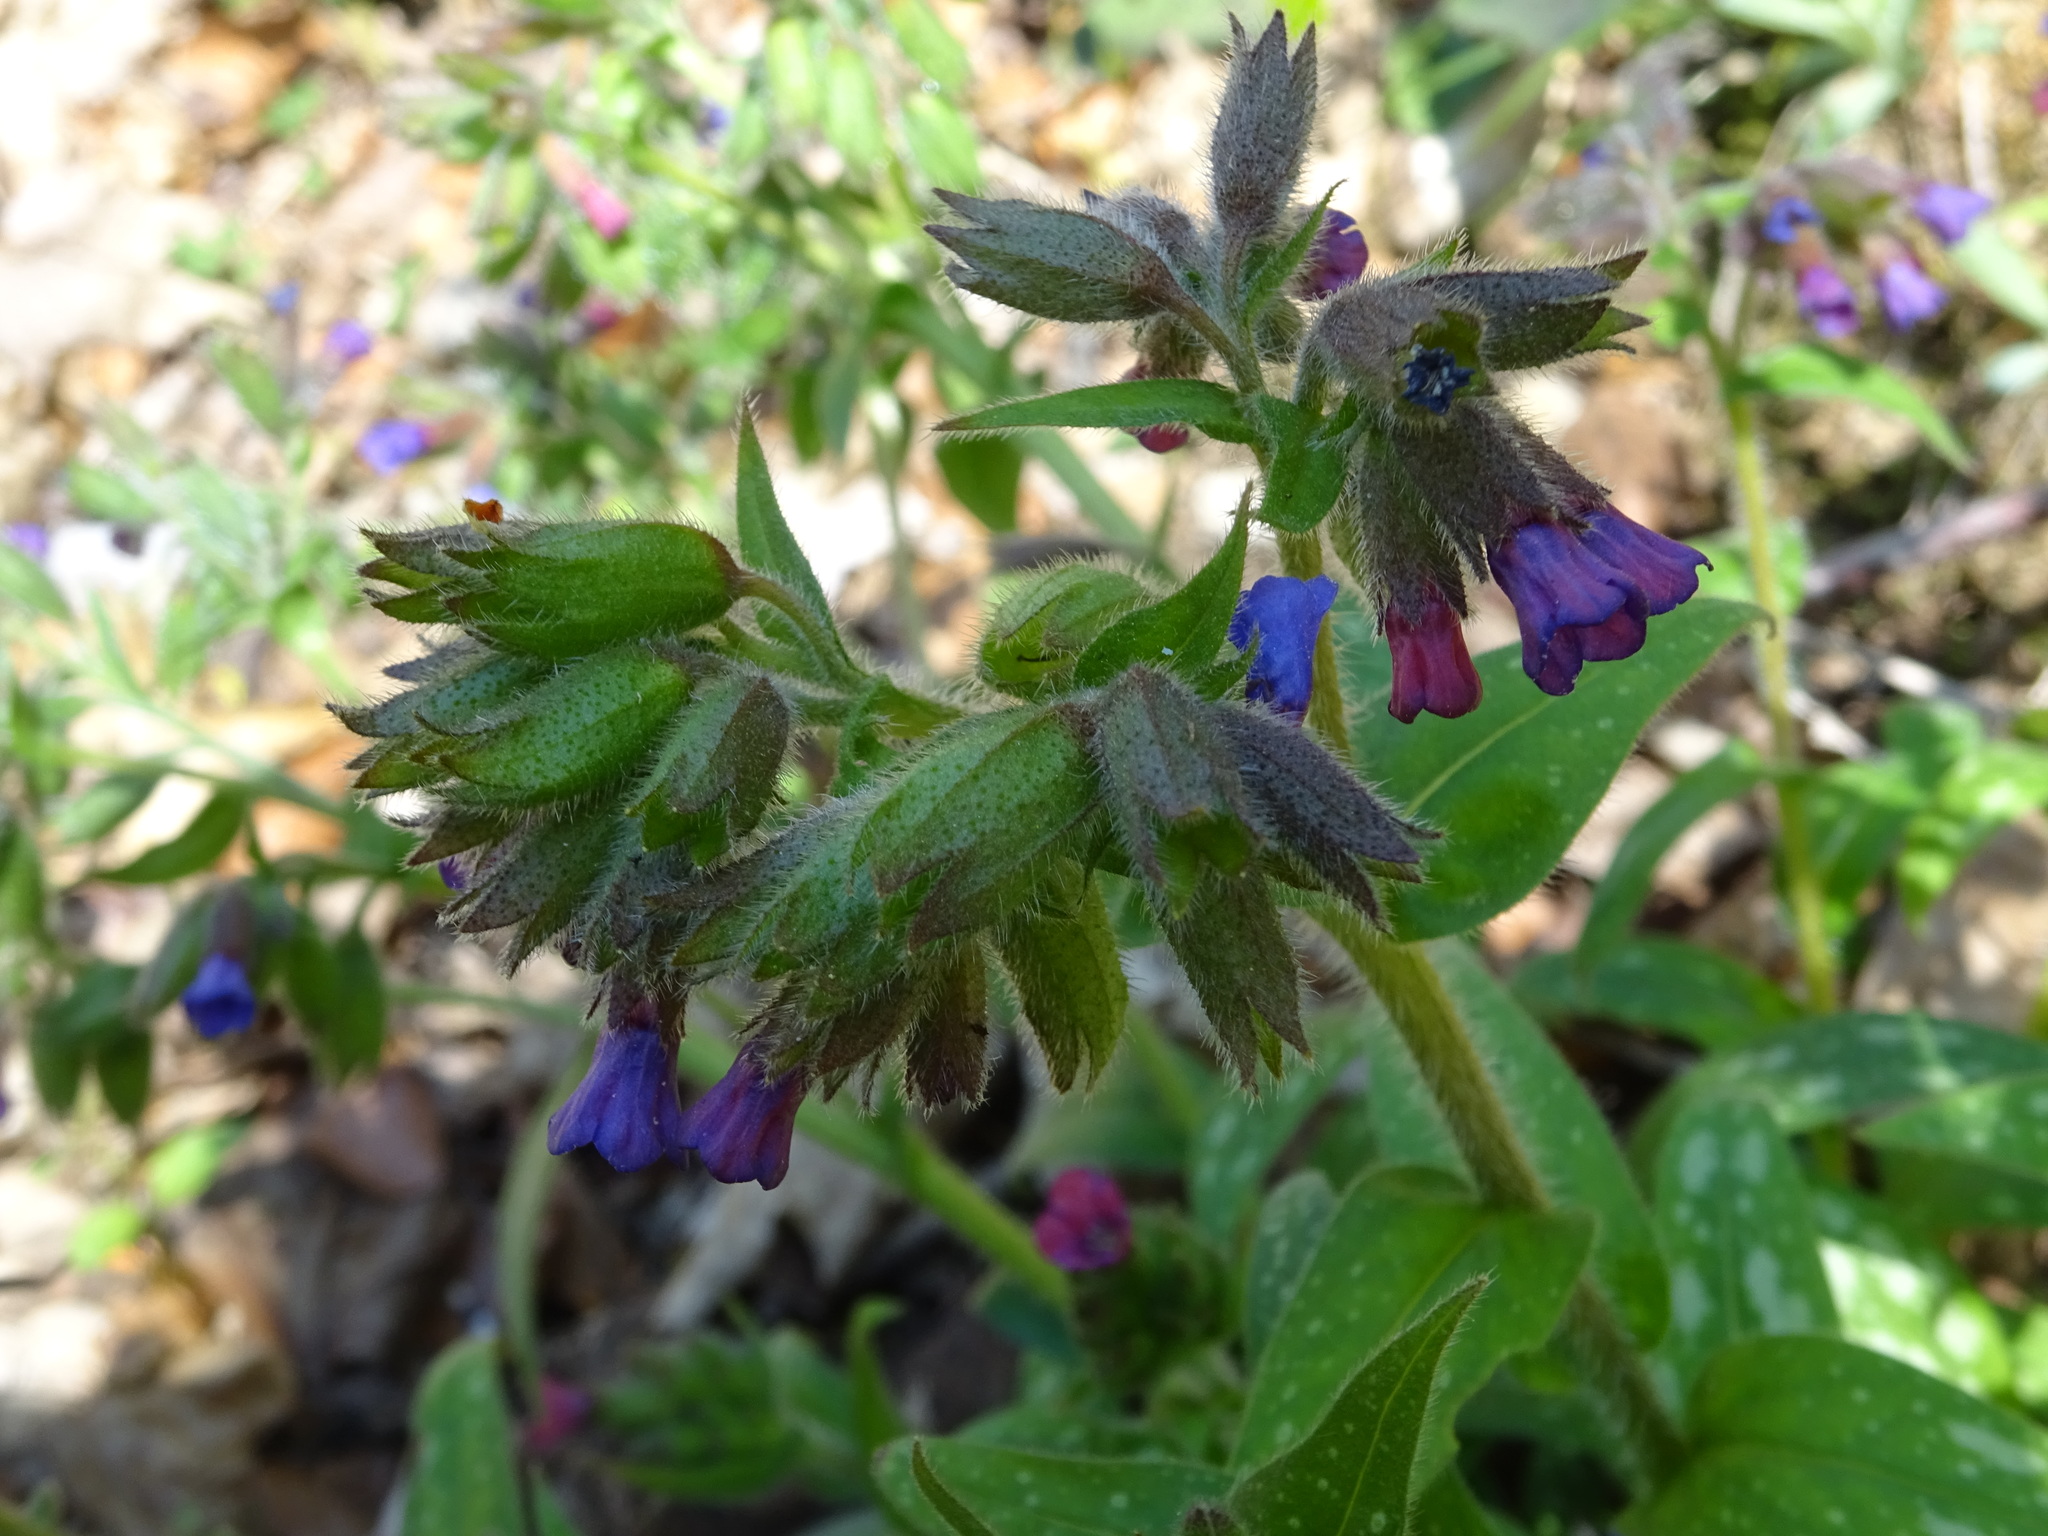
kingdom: Plantae
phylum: Tracheophyta
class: Magnoliopsida
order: Boraginales
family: Boraginaceae
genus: Pulmonaria
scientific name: Pulmonaria officinalis
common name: Lungwort
